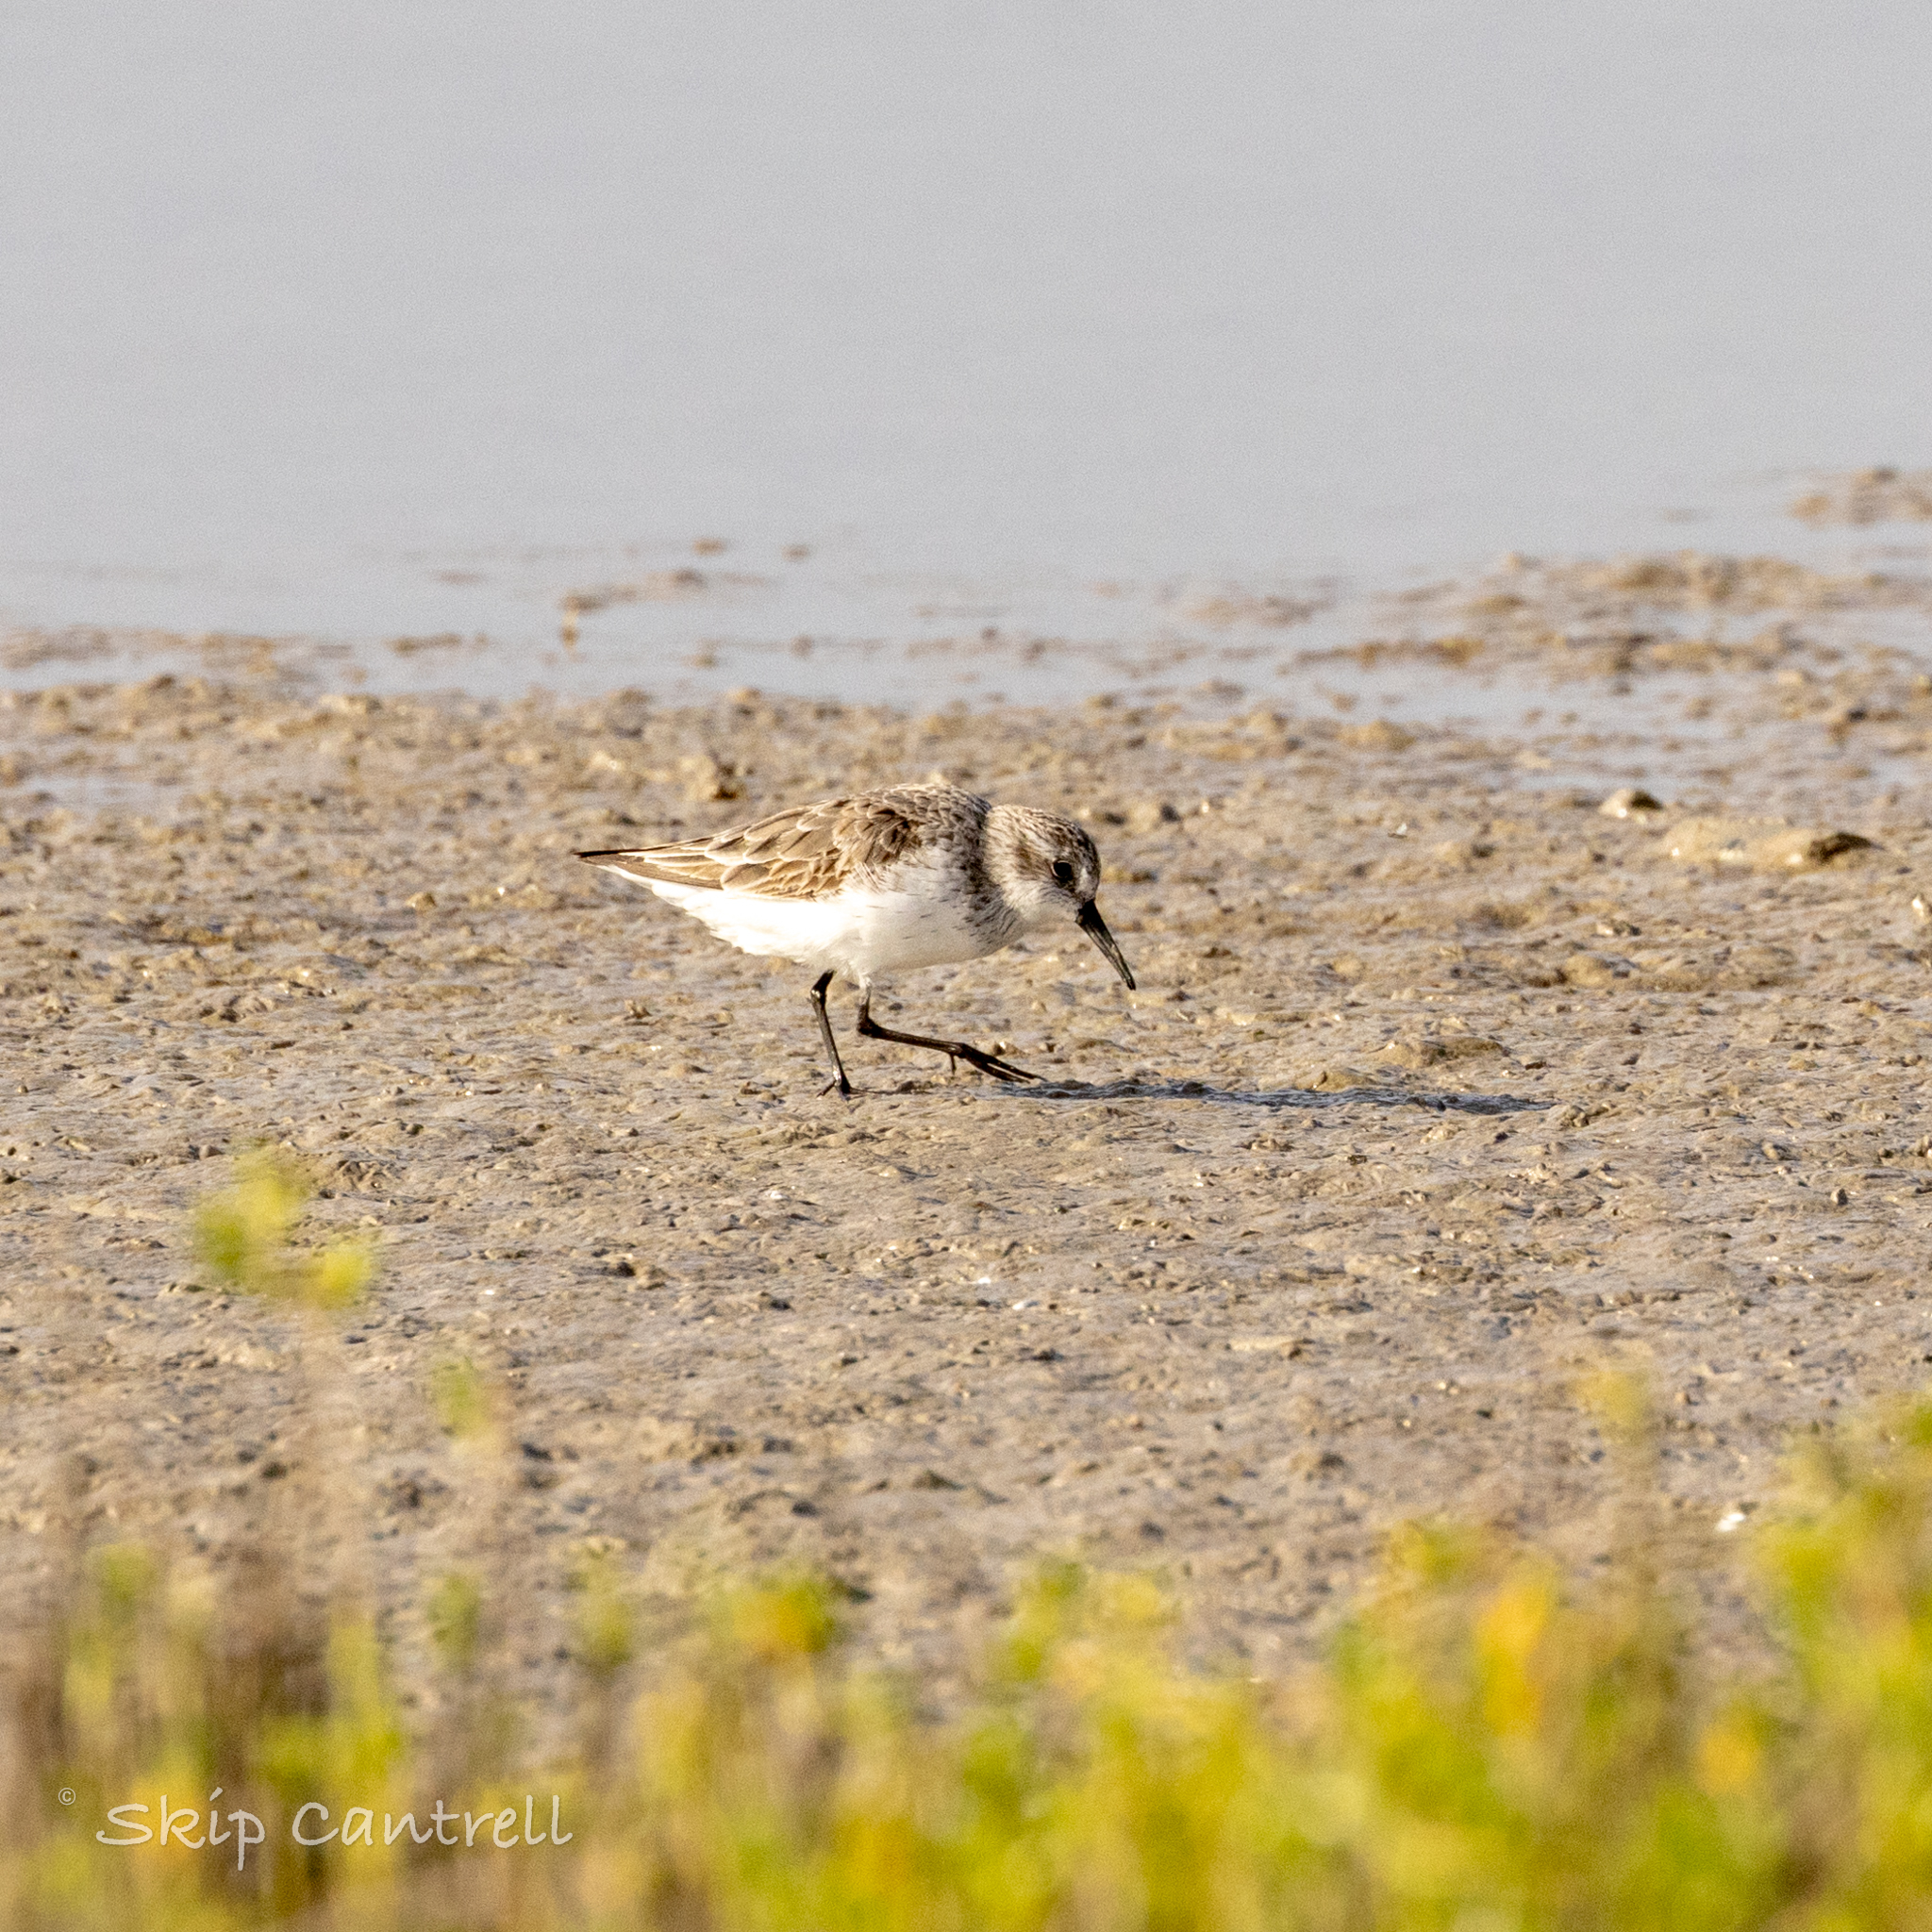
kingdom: Animalia
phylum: Chordata
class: Aves
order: Charadriiformes
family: Scolopacidae
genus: Calidris
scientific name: Calidris pusilla
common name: Semipalmated sandpiper
